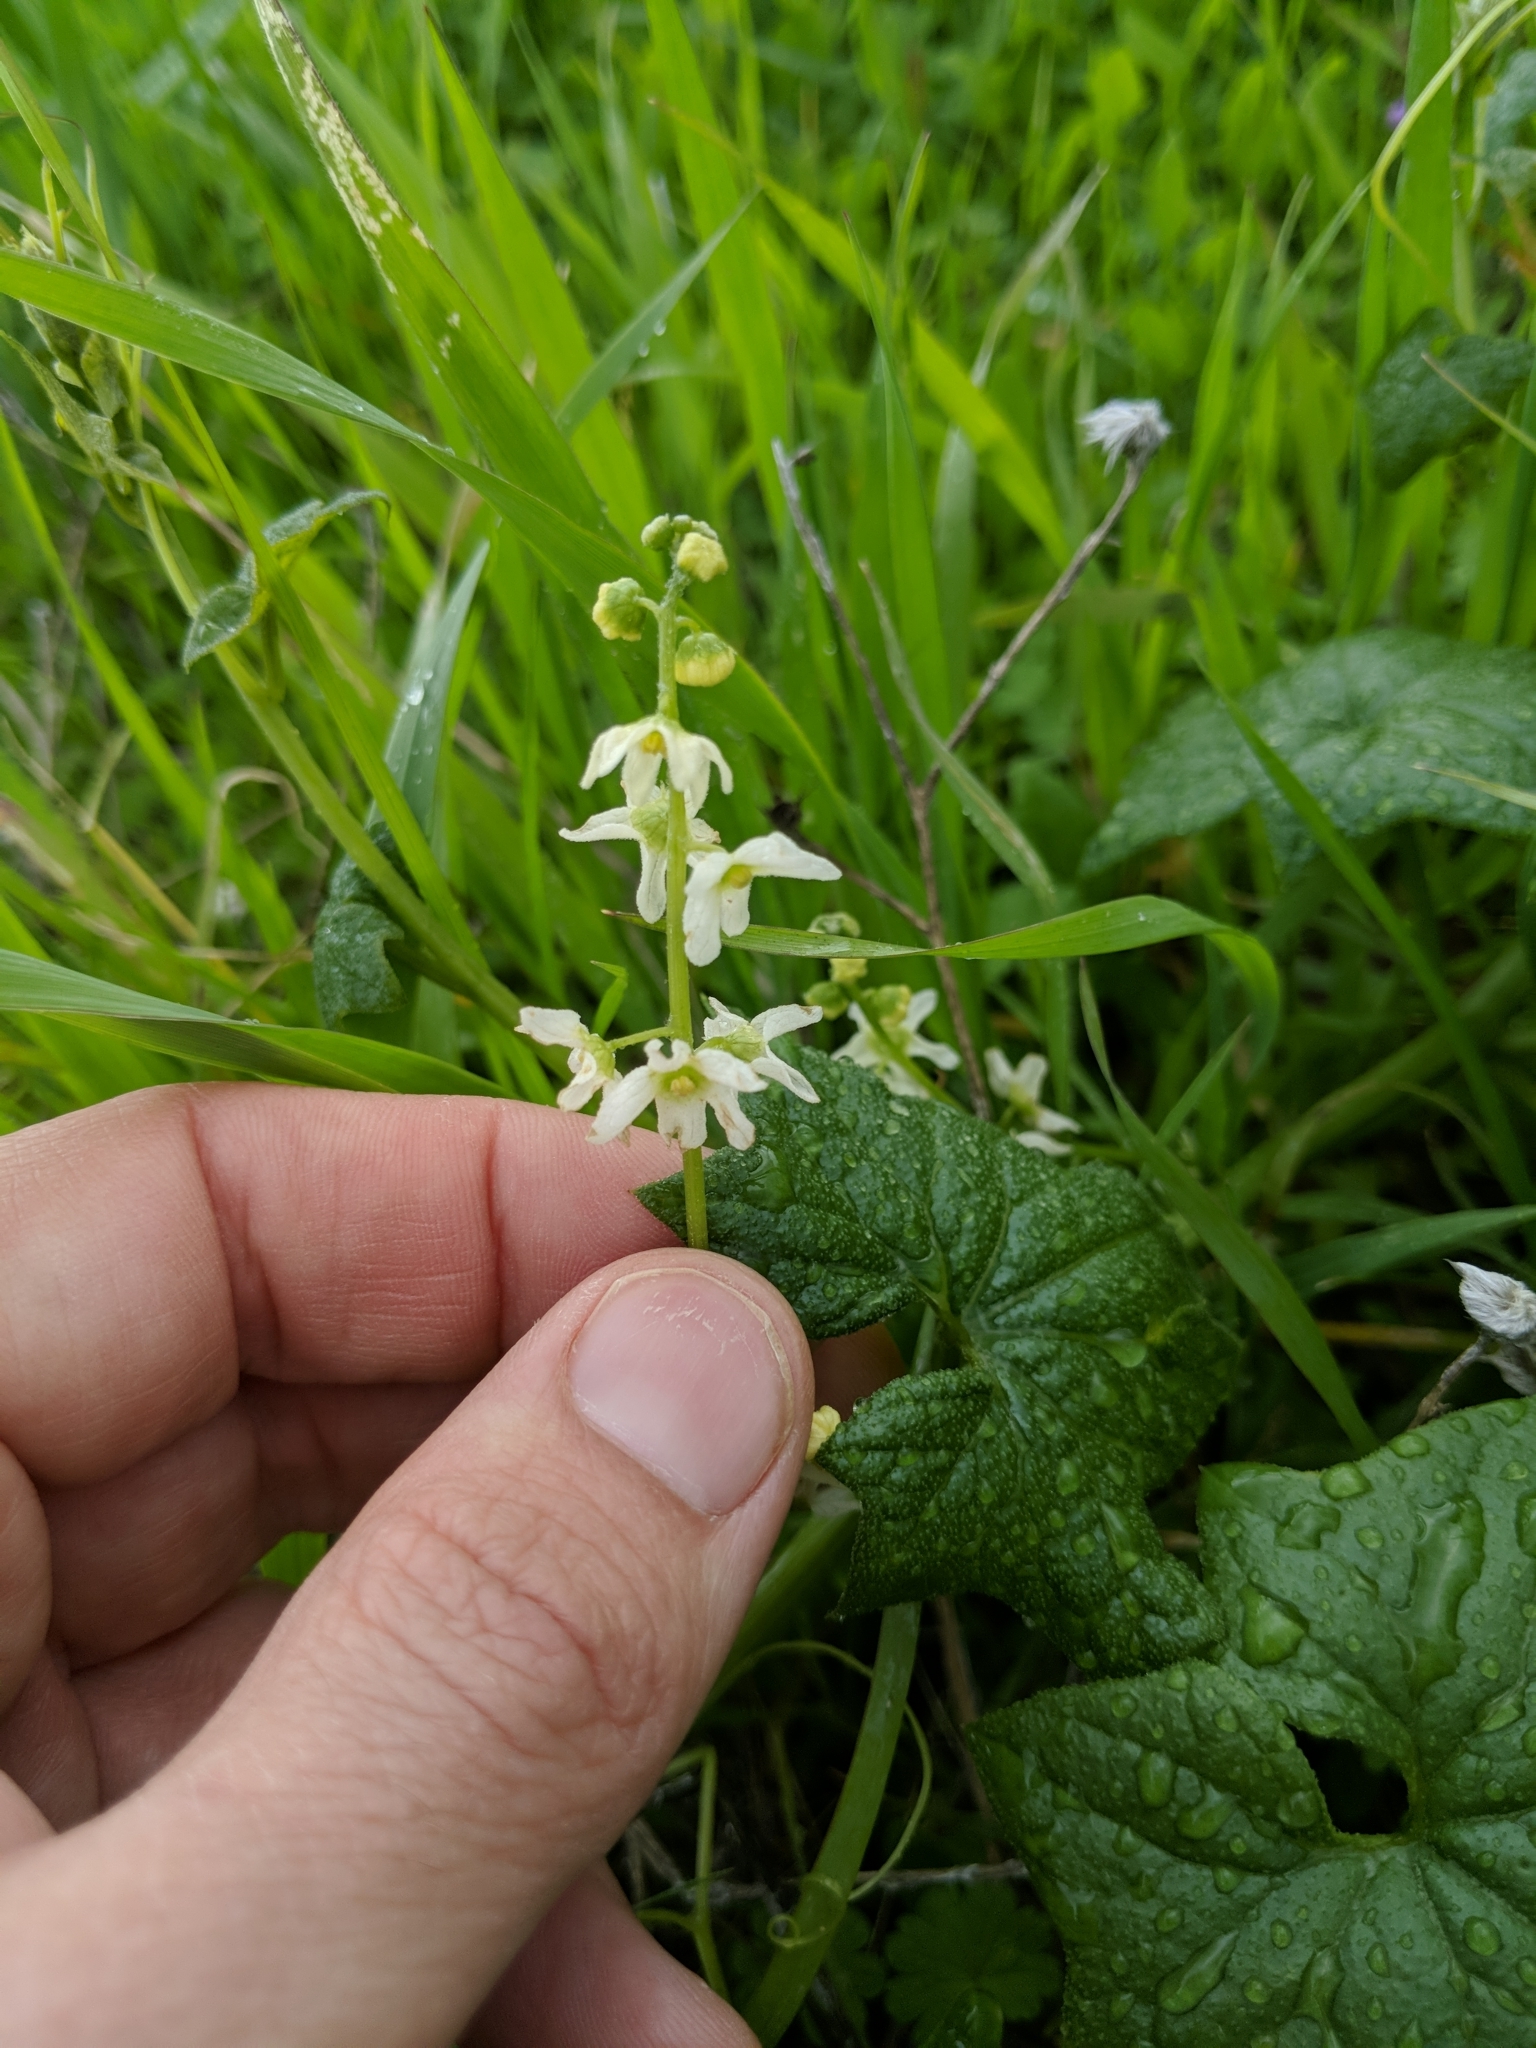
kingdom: Plantae
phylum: Tracheophyta
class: Magnoliopsida
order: Cucurbitales
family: Cucurbitaceae
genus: Marah
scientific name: Marah fabacea
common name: California manroot
